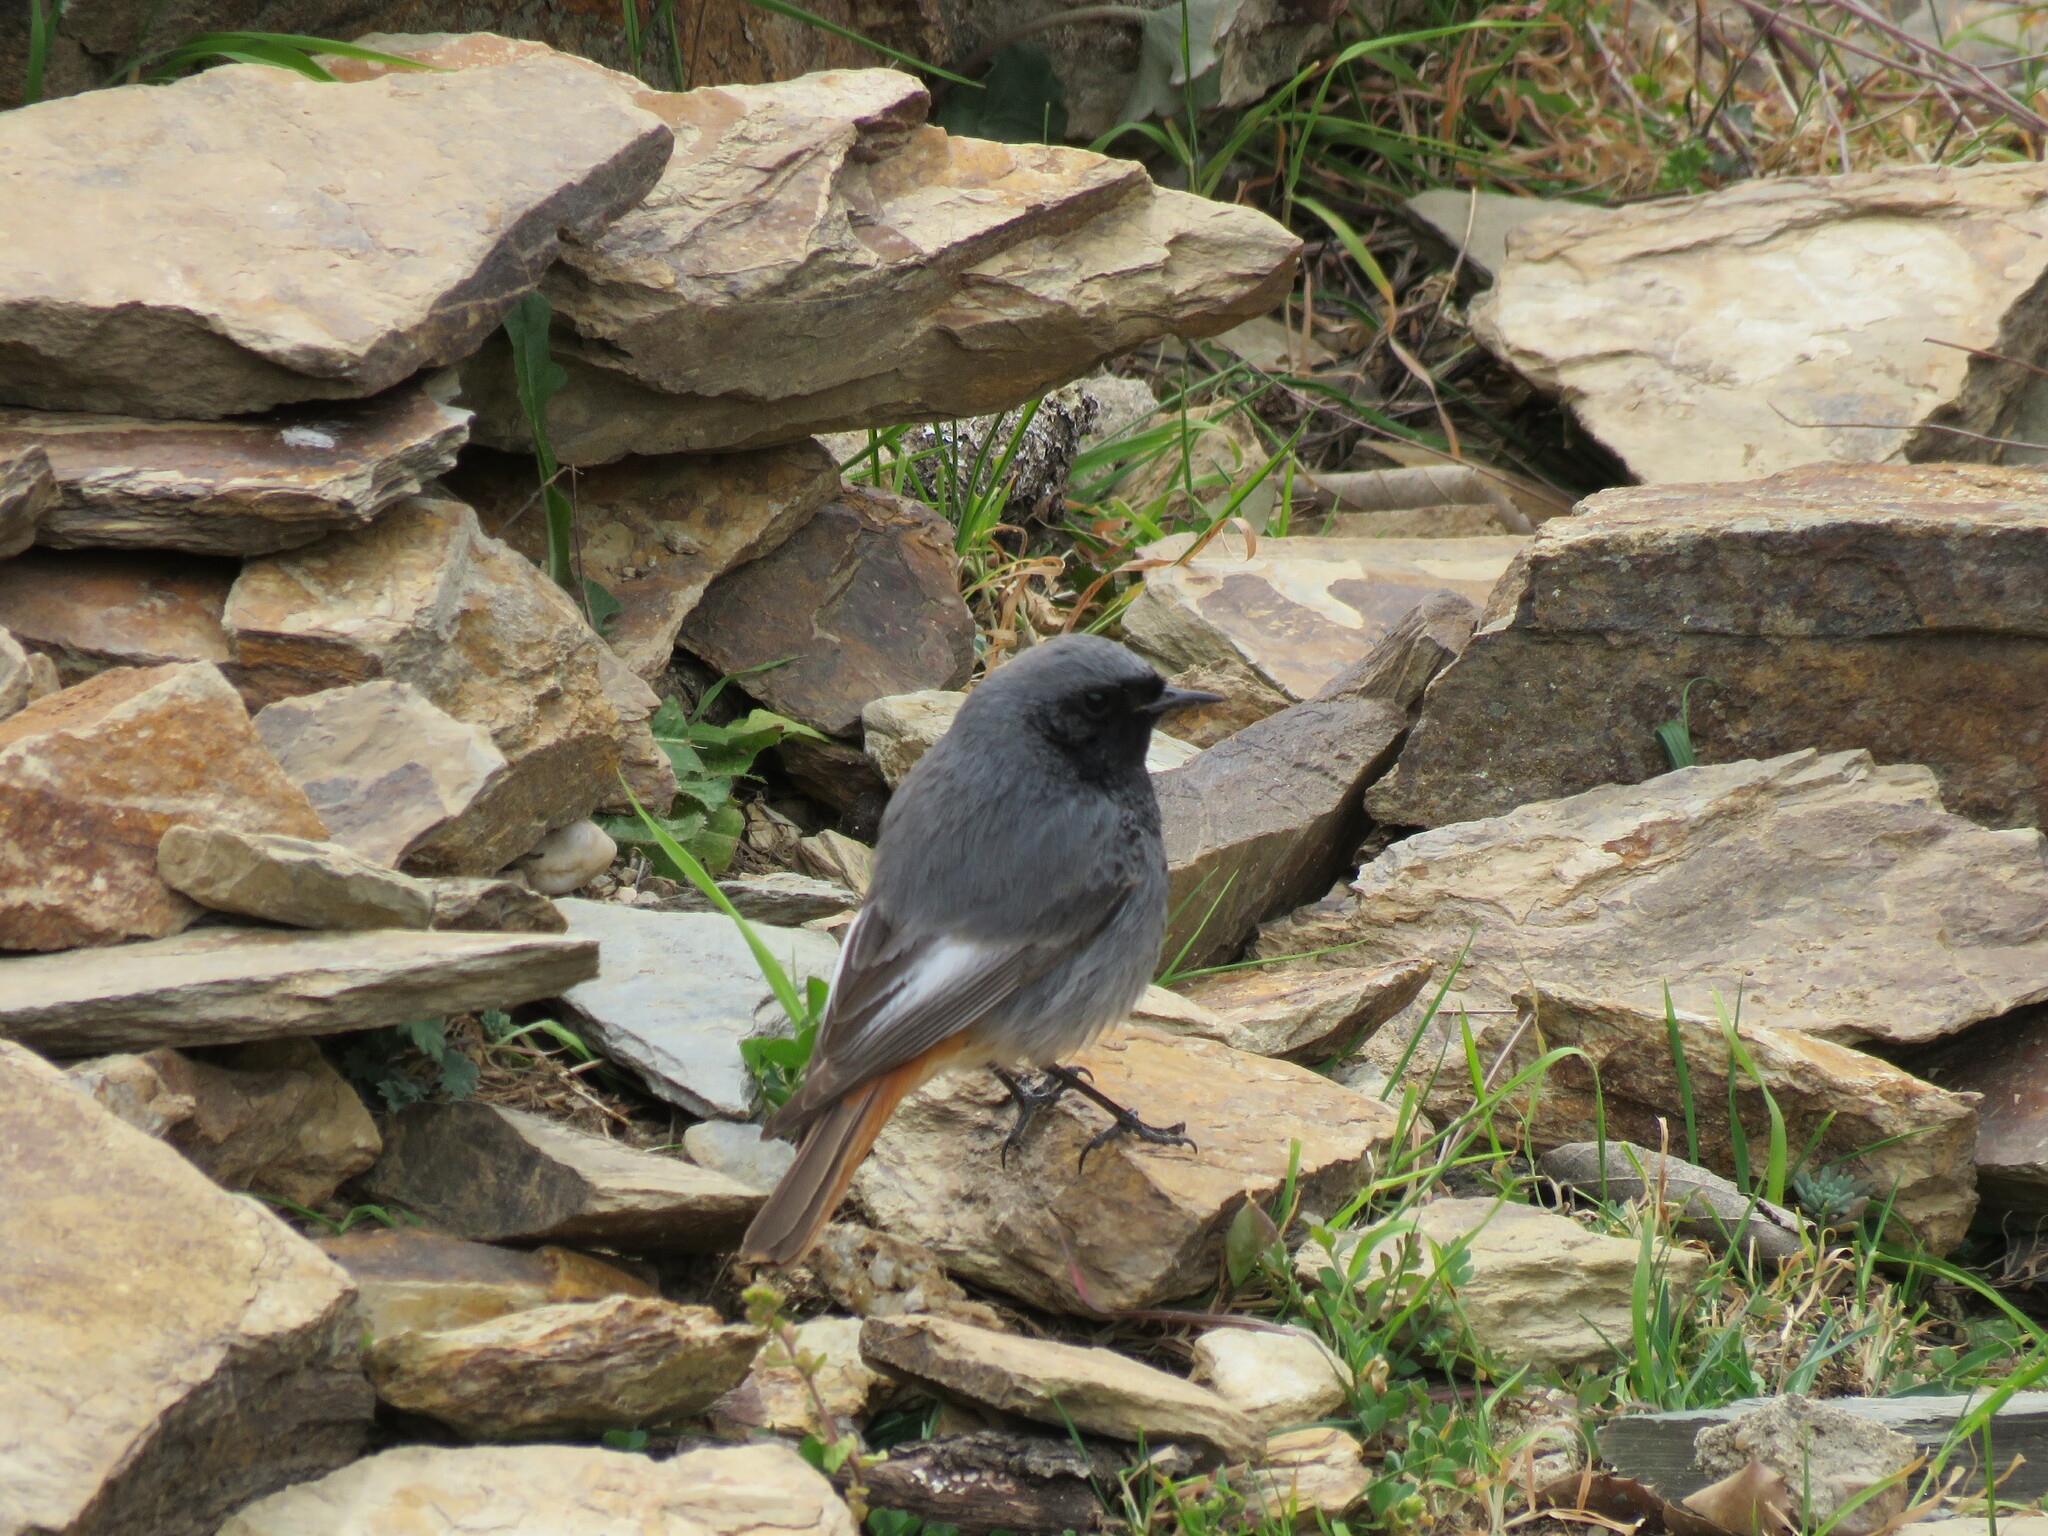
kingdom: Animalia
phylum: Chordata
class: Aves
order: Passeriformes
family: Muscicapidae
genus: Phoenicurus
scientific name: Phoenicurus ochruros
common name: Black redstart
